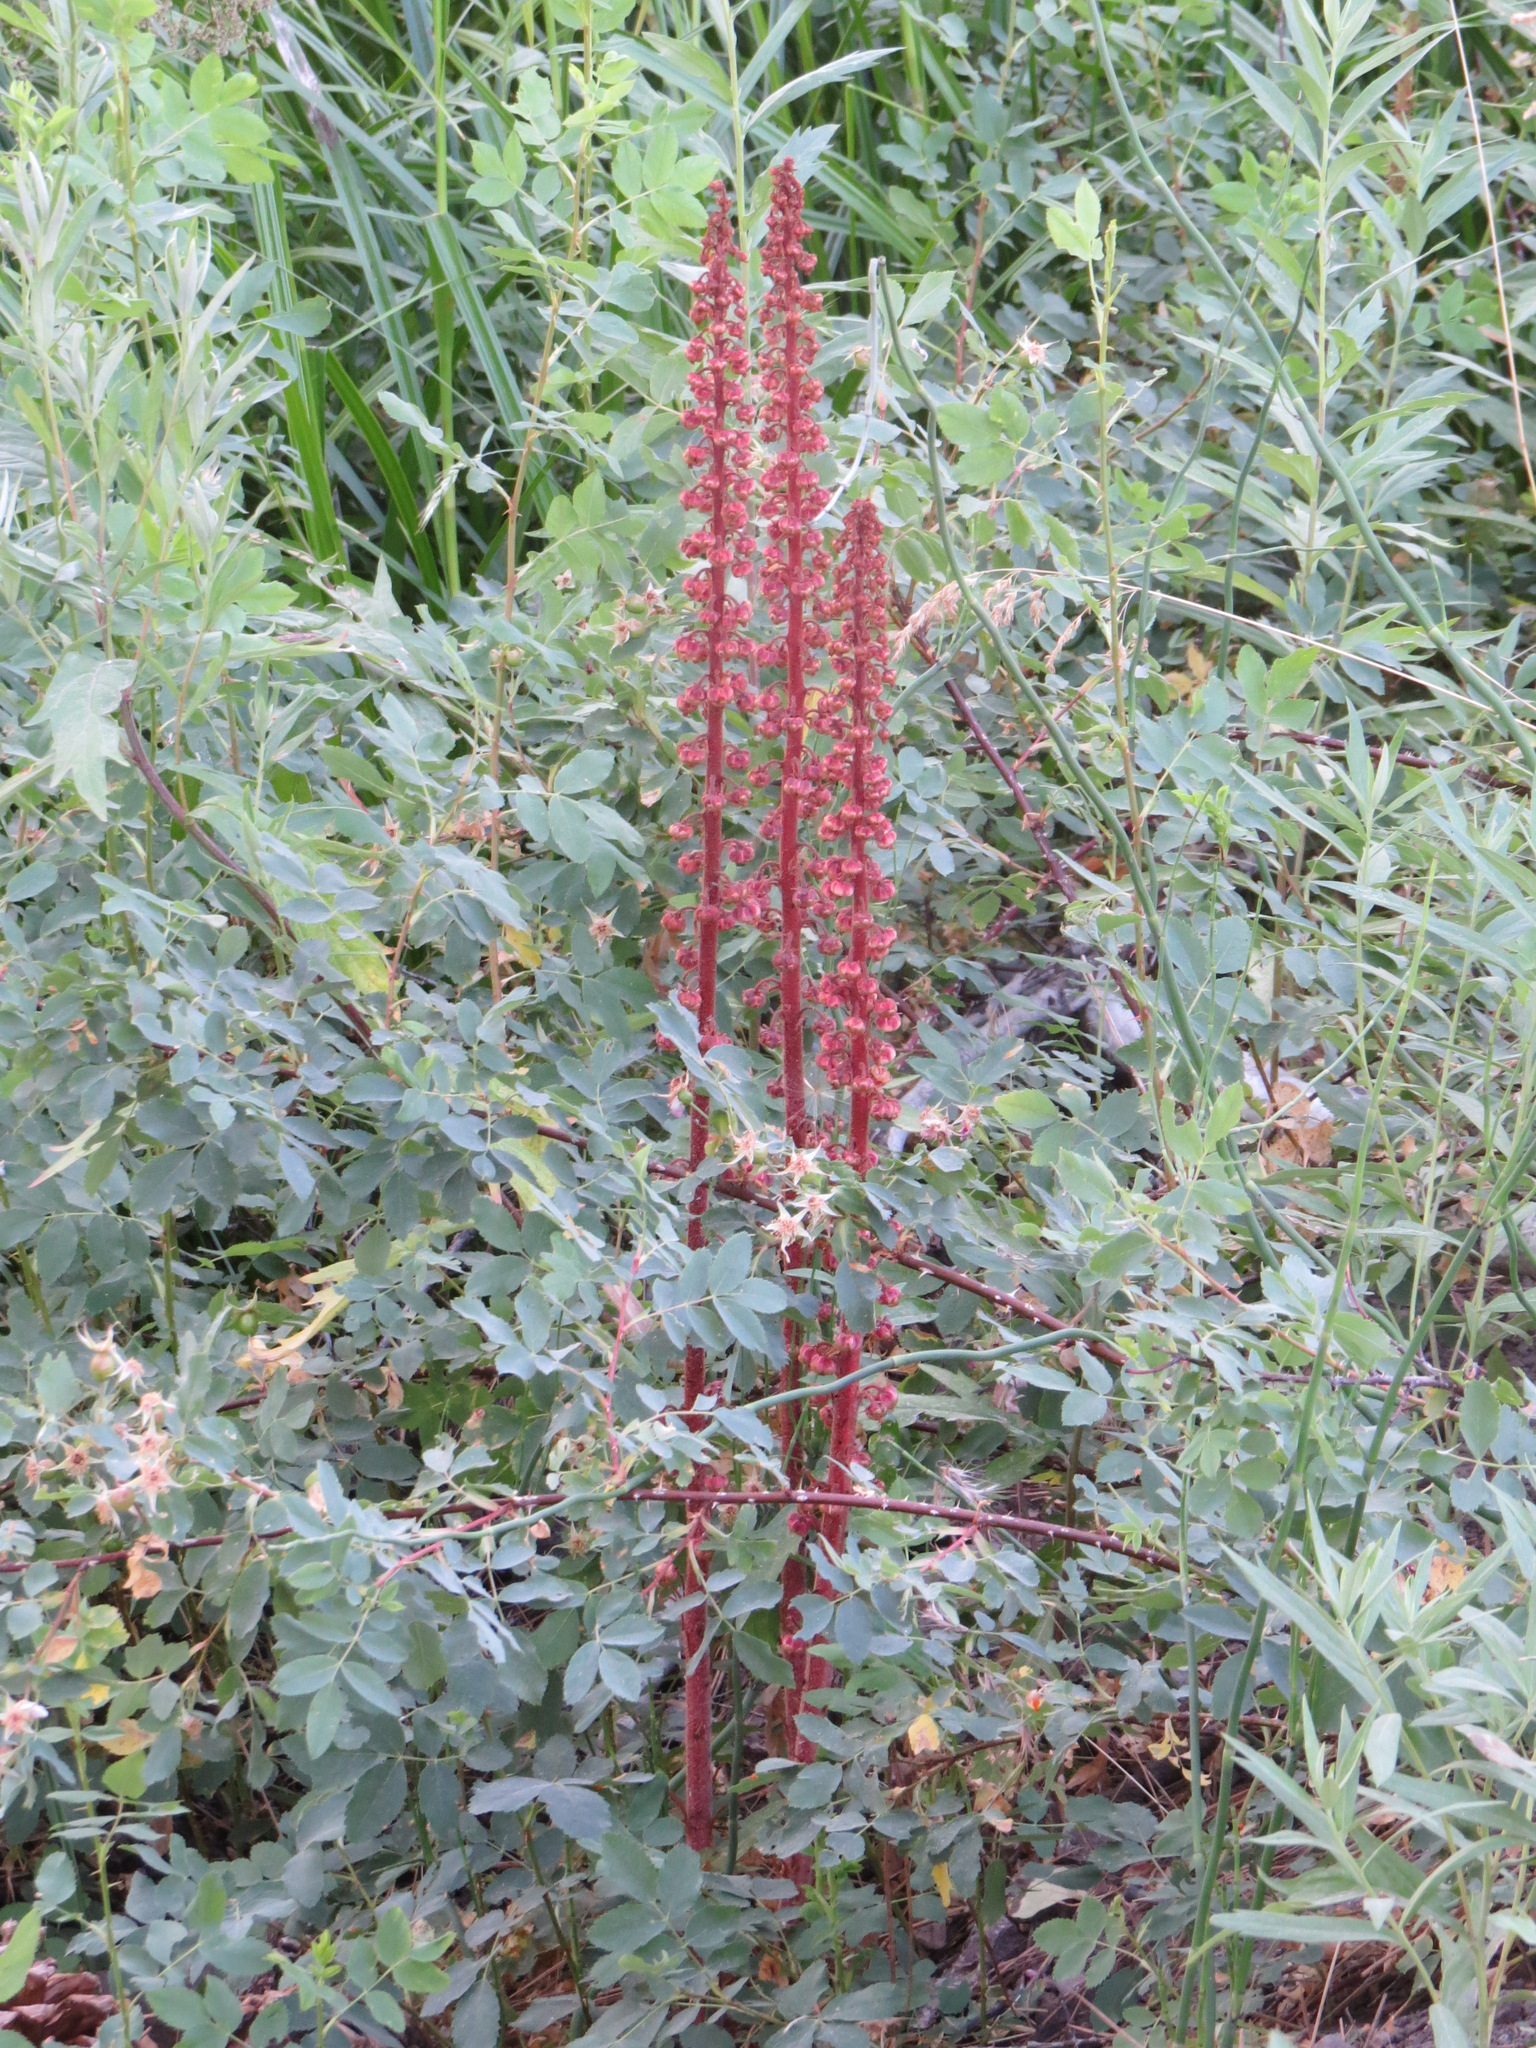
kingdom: Plantae
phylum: Tracheophyta
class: Magnoliopsida
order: Ericales
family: Ericaceae
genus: Pterospora
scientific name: Pterospora andromedea
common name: Giant bird's-nest
